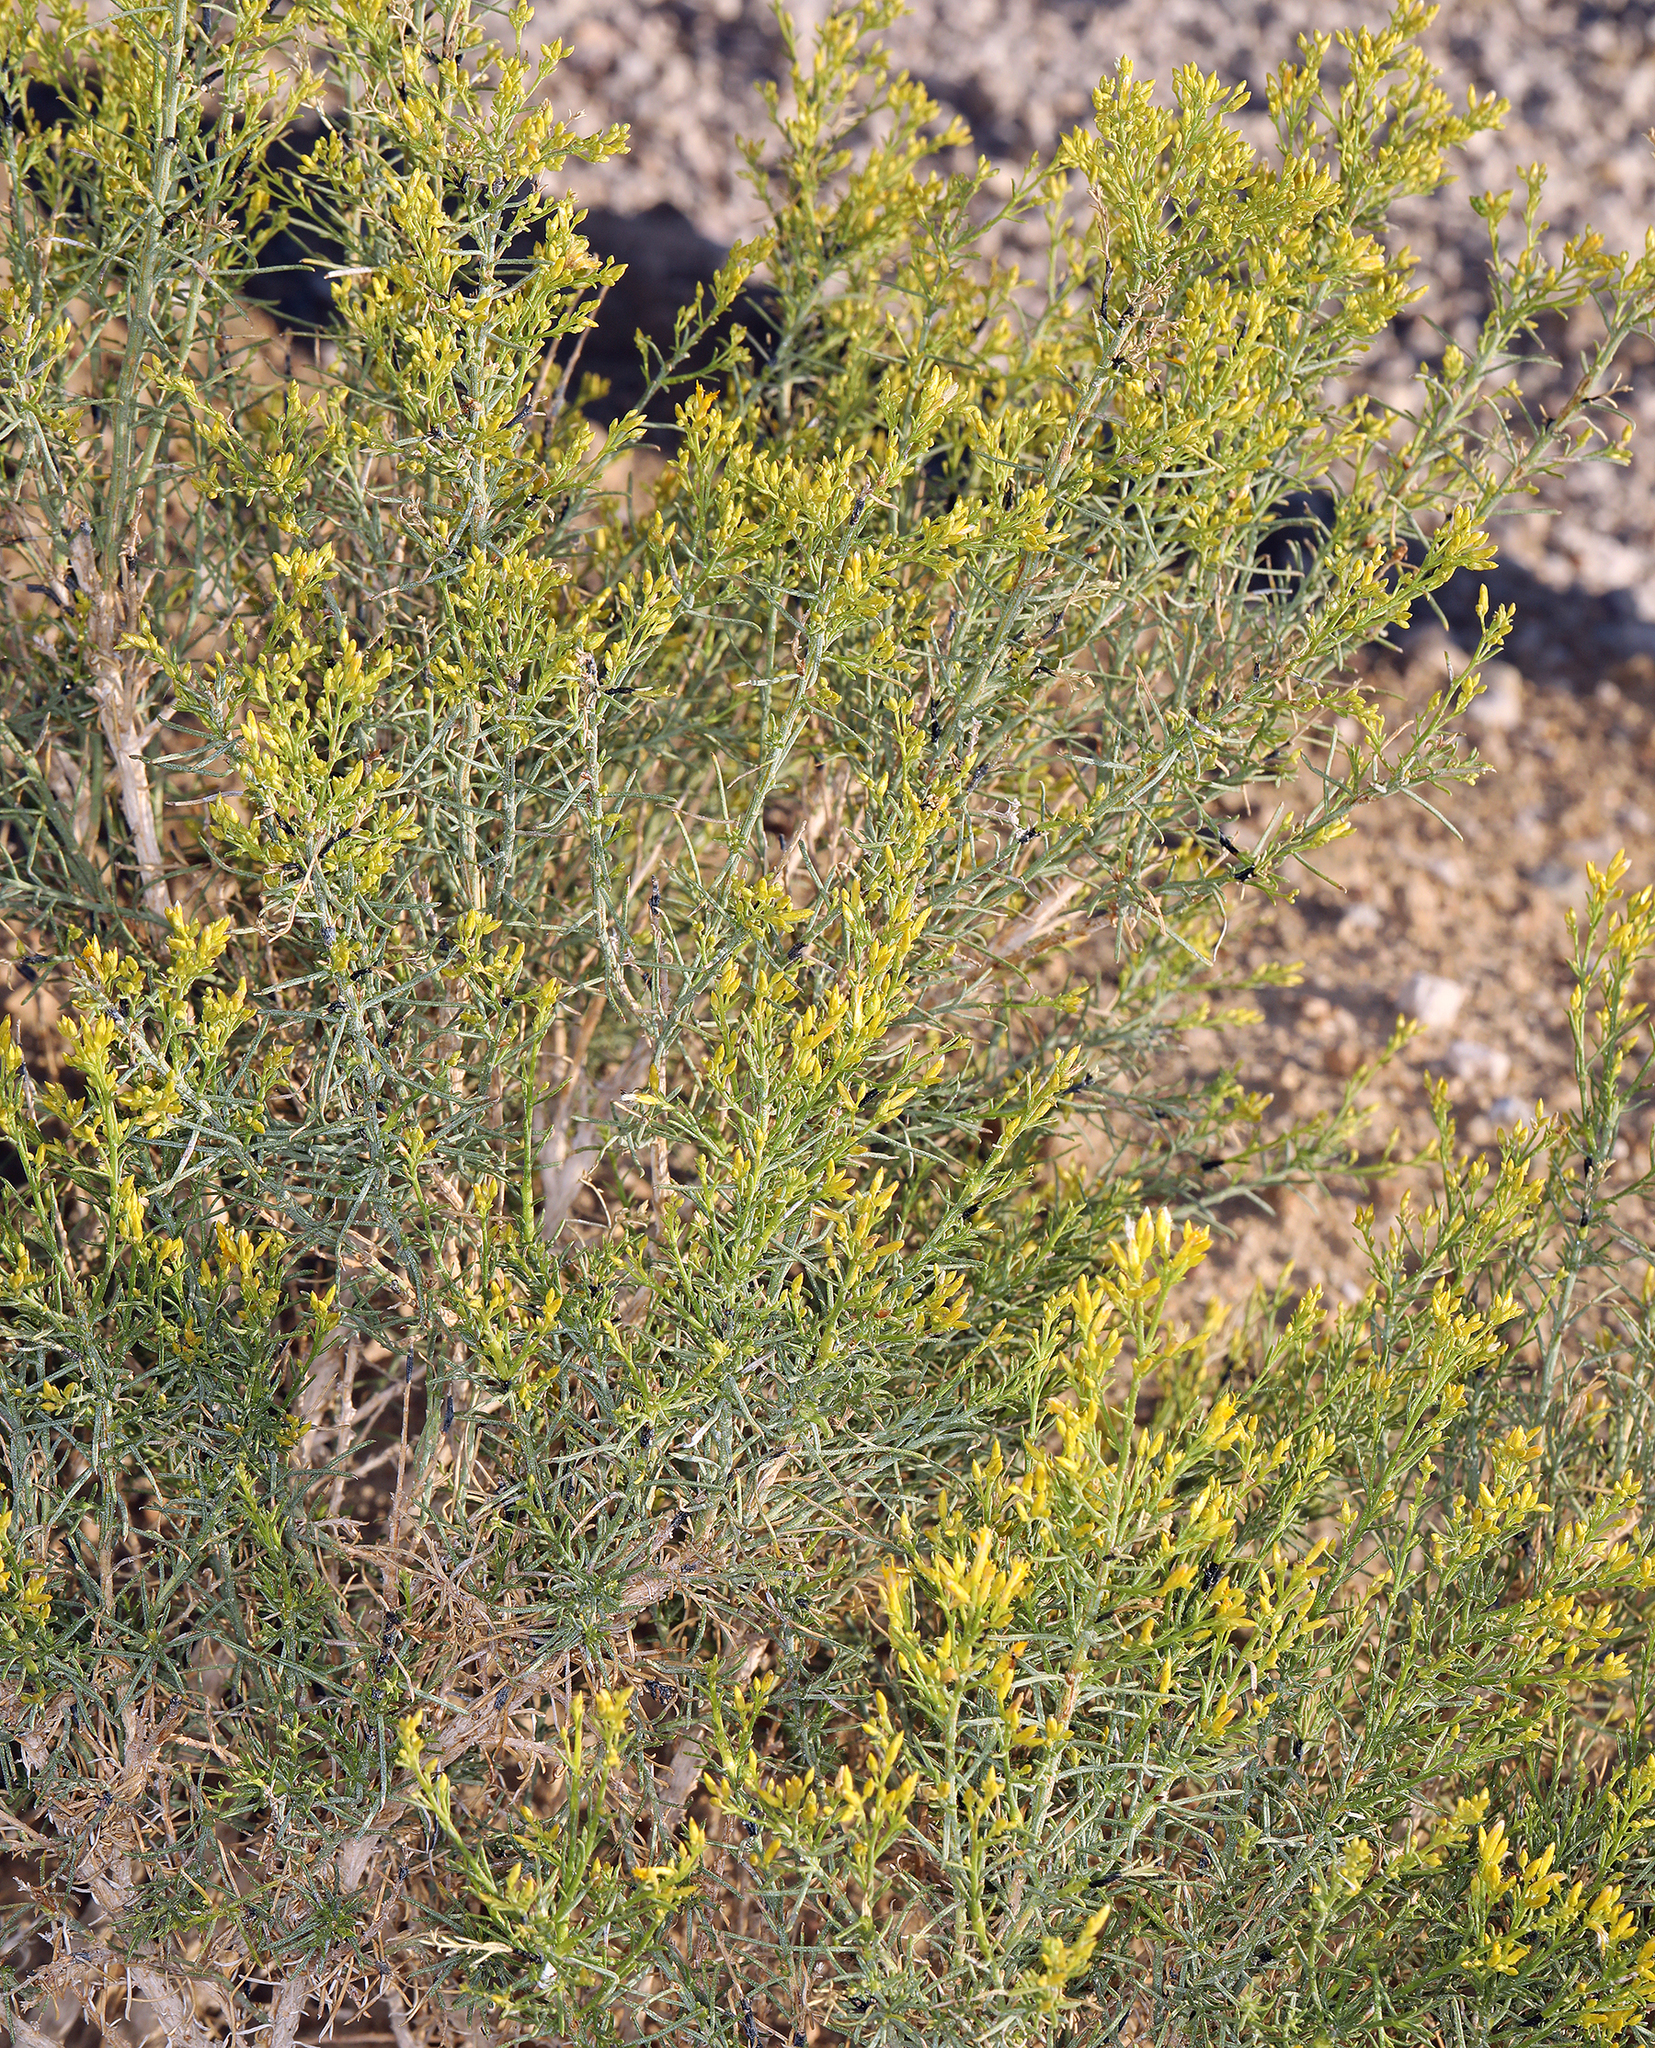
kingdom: Plantae
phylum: Tracheophyta
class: Magnoliopsida
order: Asterales
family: Asteraceae
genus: Ericameria
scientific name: Ericameria paniculata
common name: Punctate rabbitbrush
